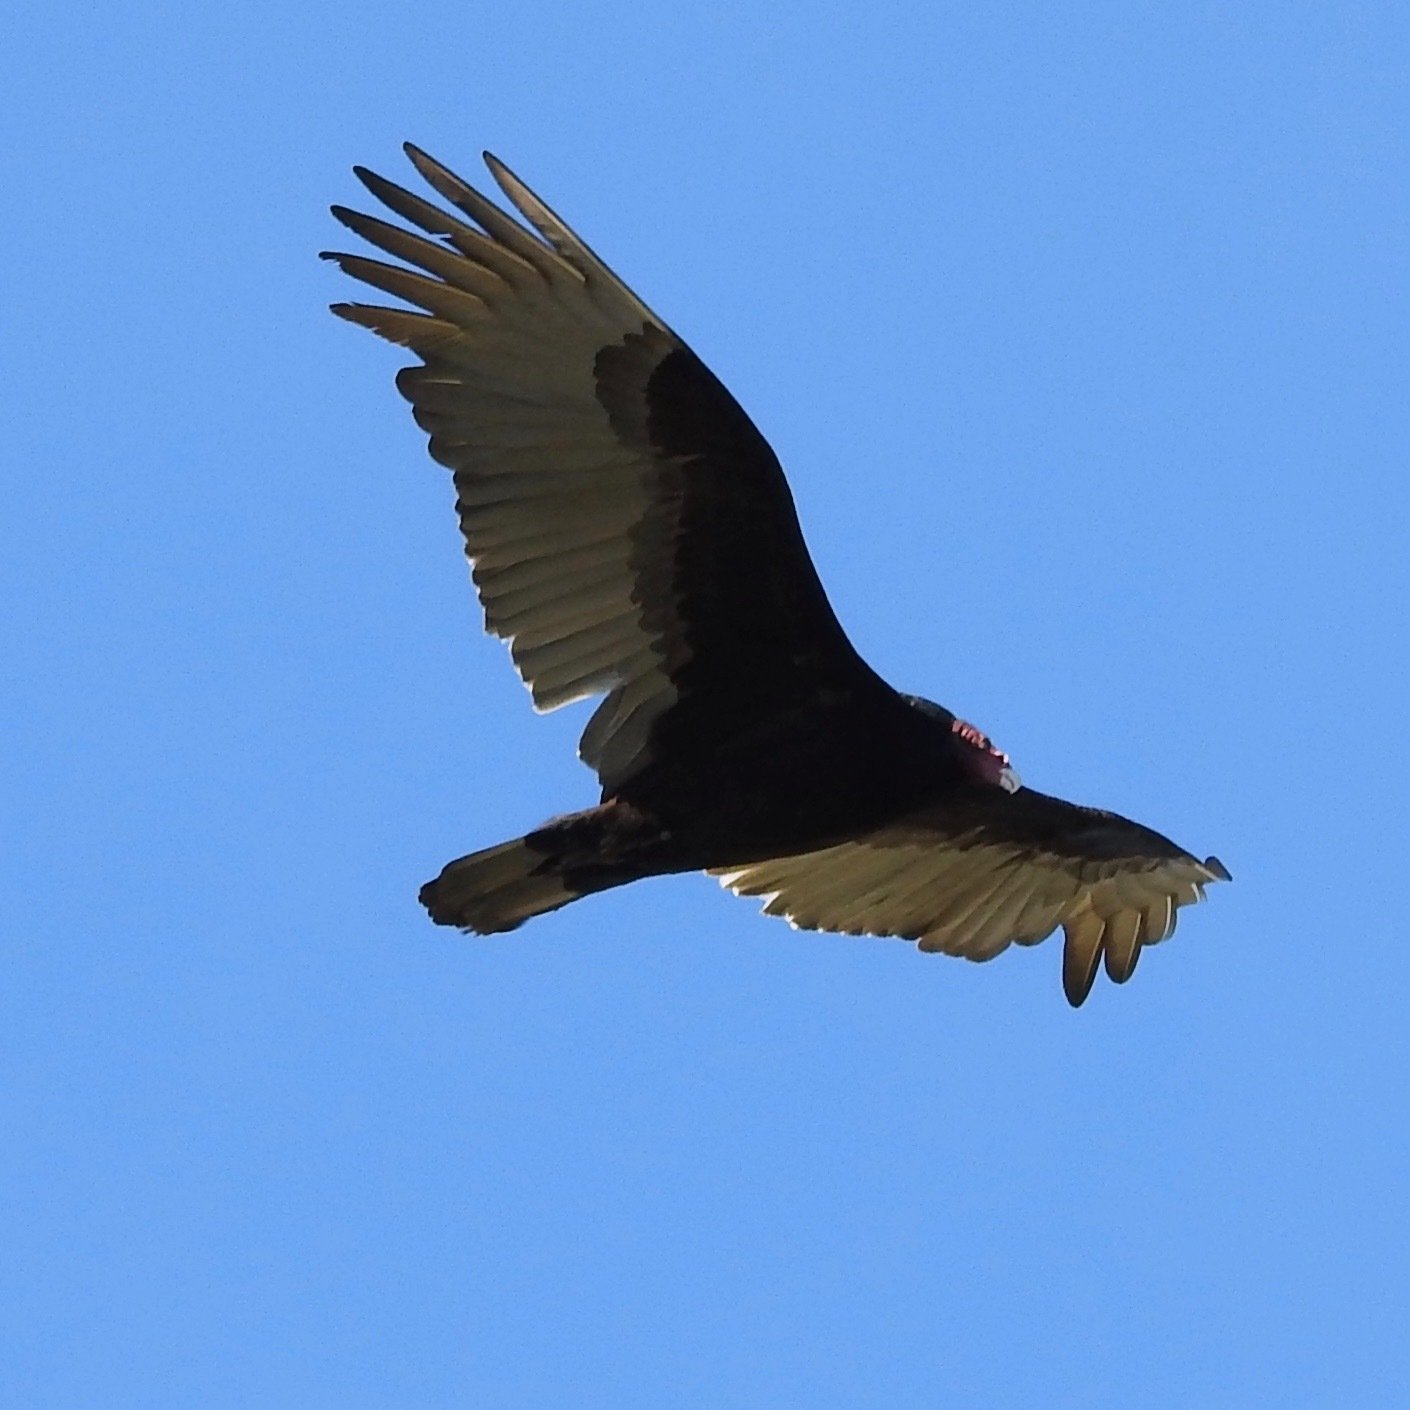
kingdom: Animalia
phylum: Chordata
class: Aves
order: Accipitriformes
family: Cathartidae
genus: Cathartes
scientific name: Cathartes aura
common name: Turkey vulture
